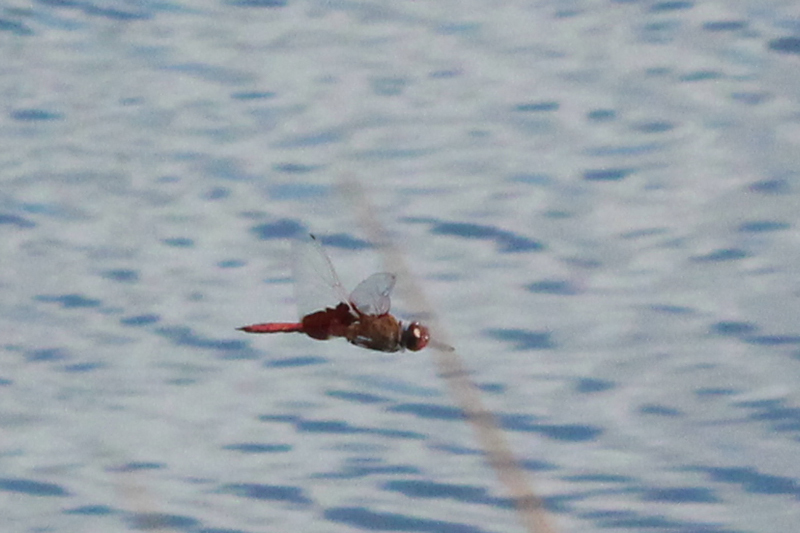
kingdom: Animalia
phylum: Arthropoda
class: Insecta
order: Odonata
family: Libellulidae
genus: Tramea
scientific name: Tramea onusta
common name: Red saddlebags
